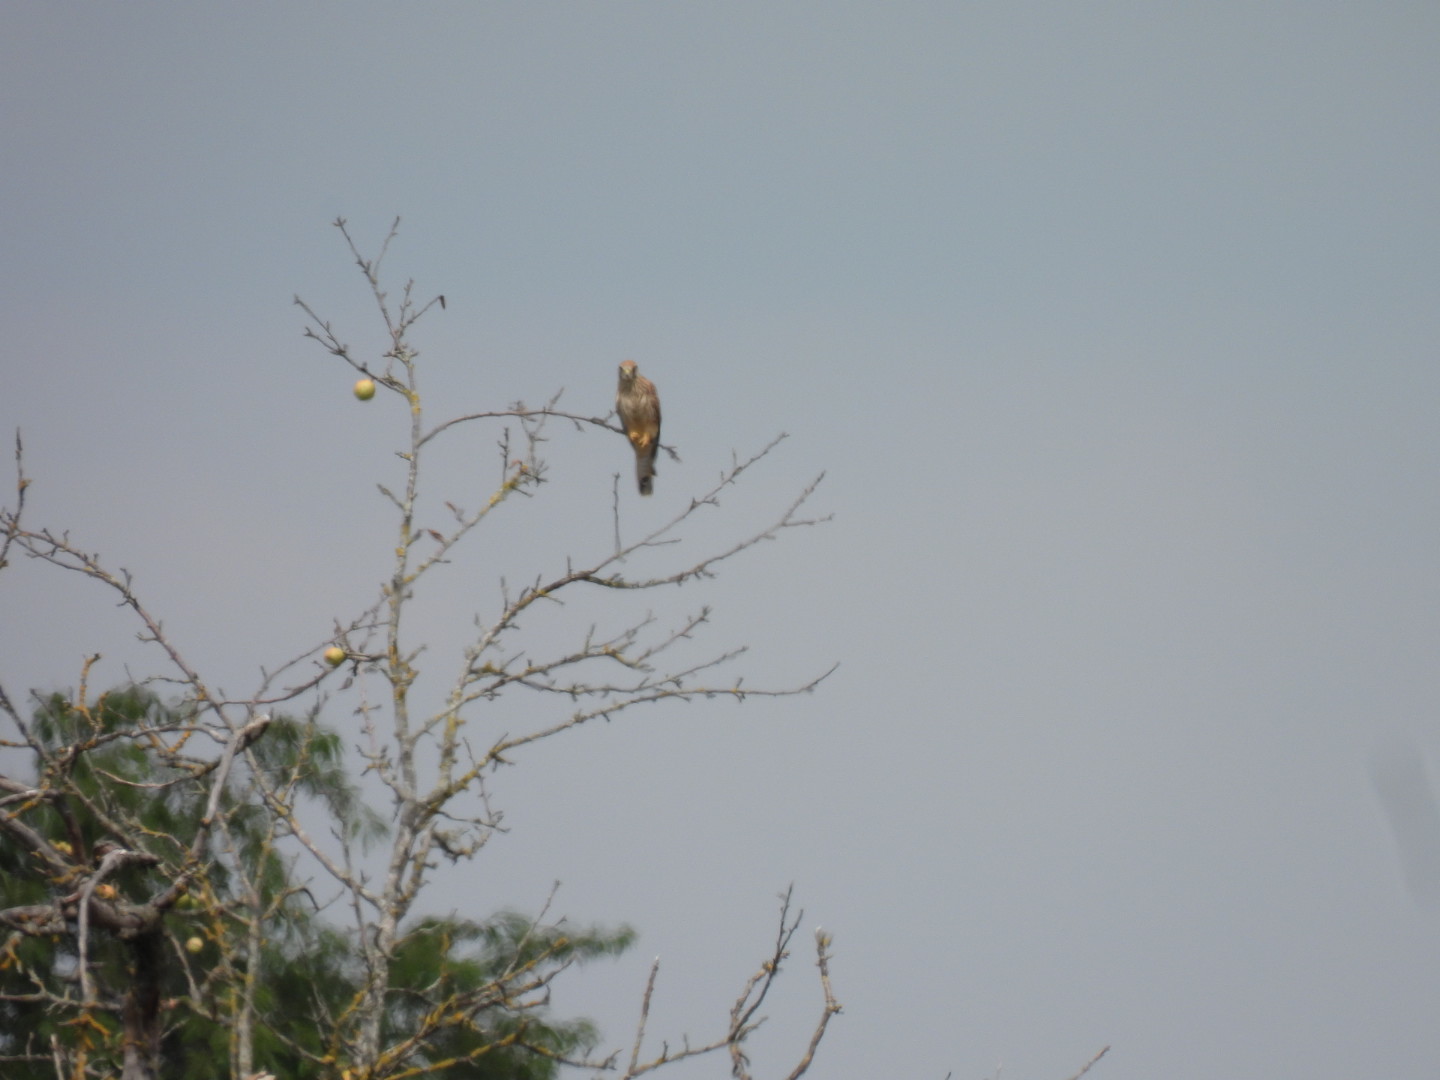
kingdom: Animalia
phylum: Chordata
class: Aves
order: Falconiformes
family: Falconidae
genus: Falco
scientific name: Falco tinnunculus
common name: Common kestrel
